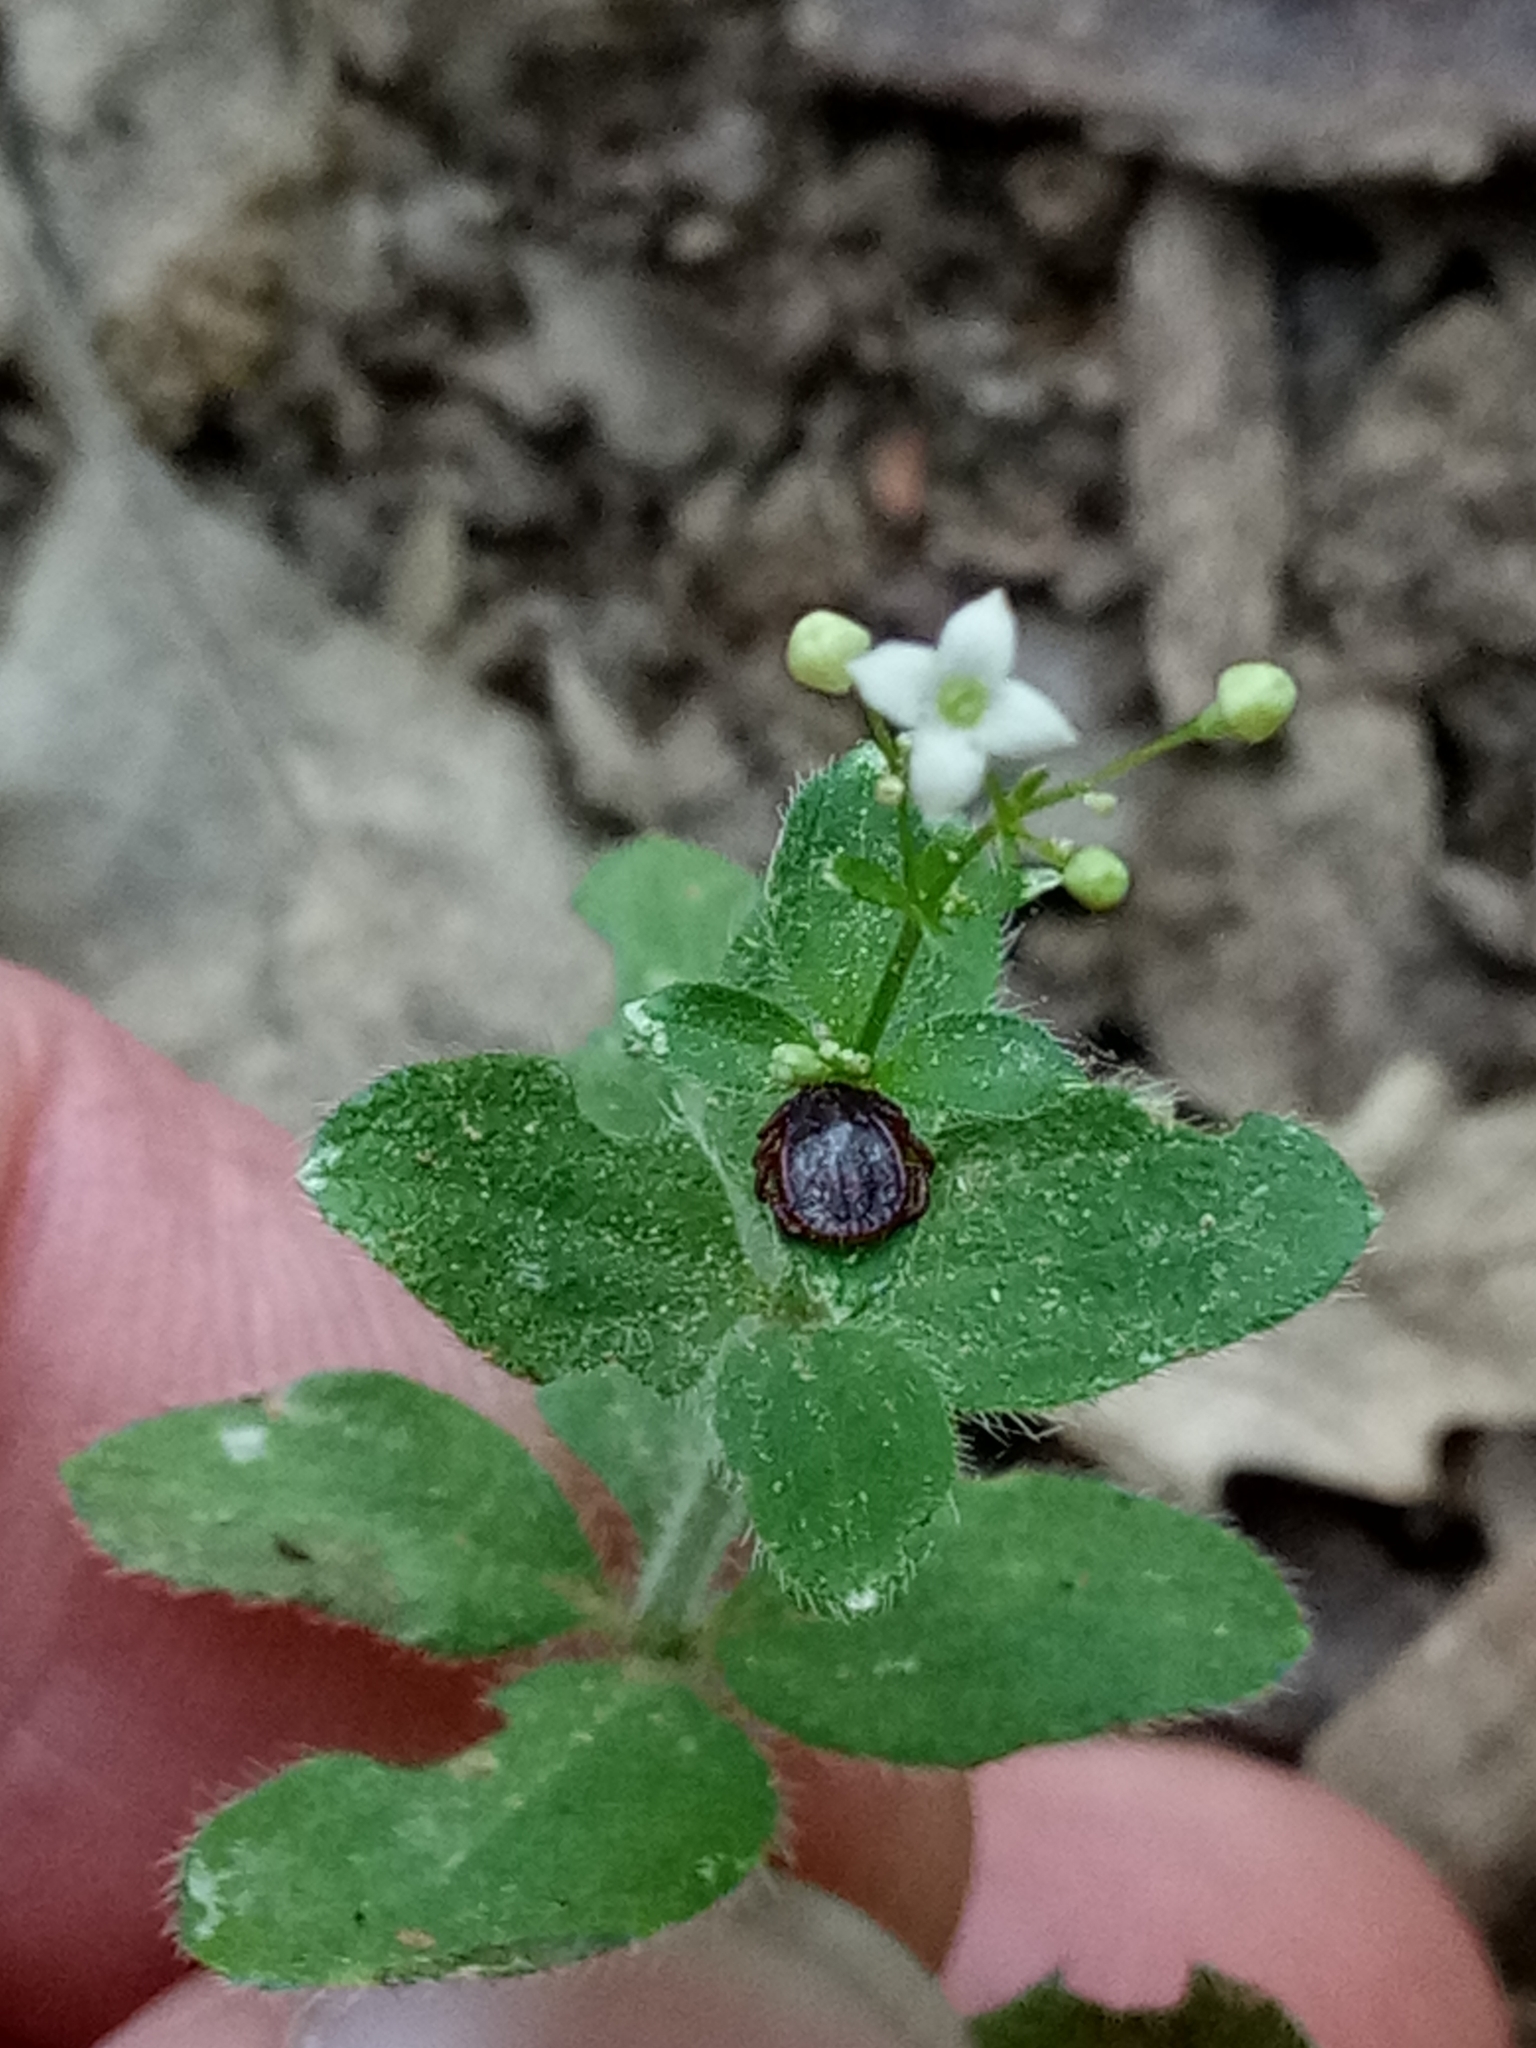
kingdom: Plantae
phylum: Tracheophyta
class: Magnoliopsida
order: Gentianales
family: Rubiaceae
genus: Galium
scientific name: Galium scabrum
